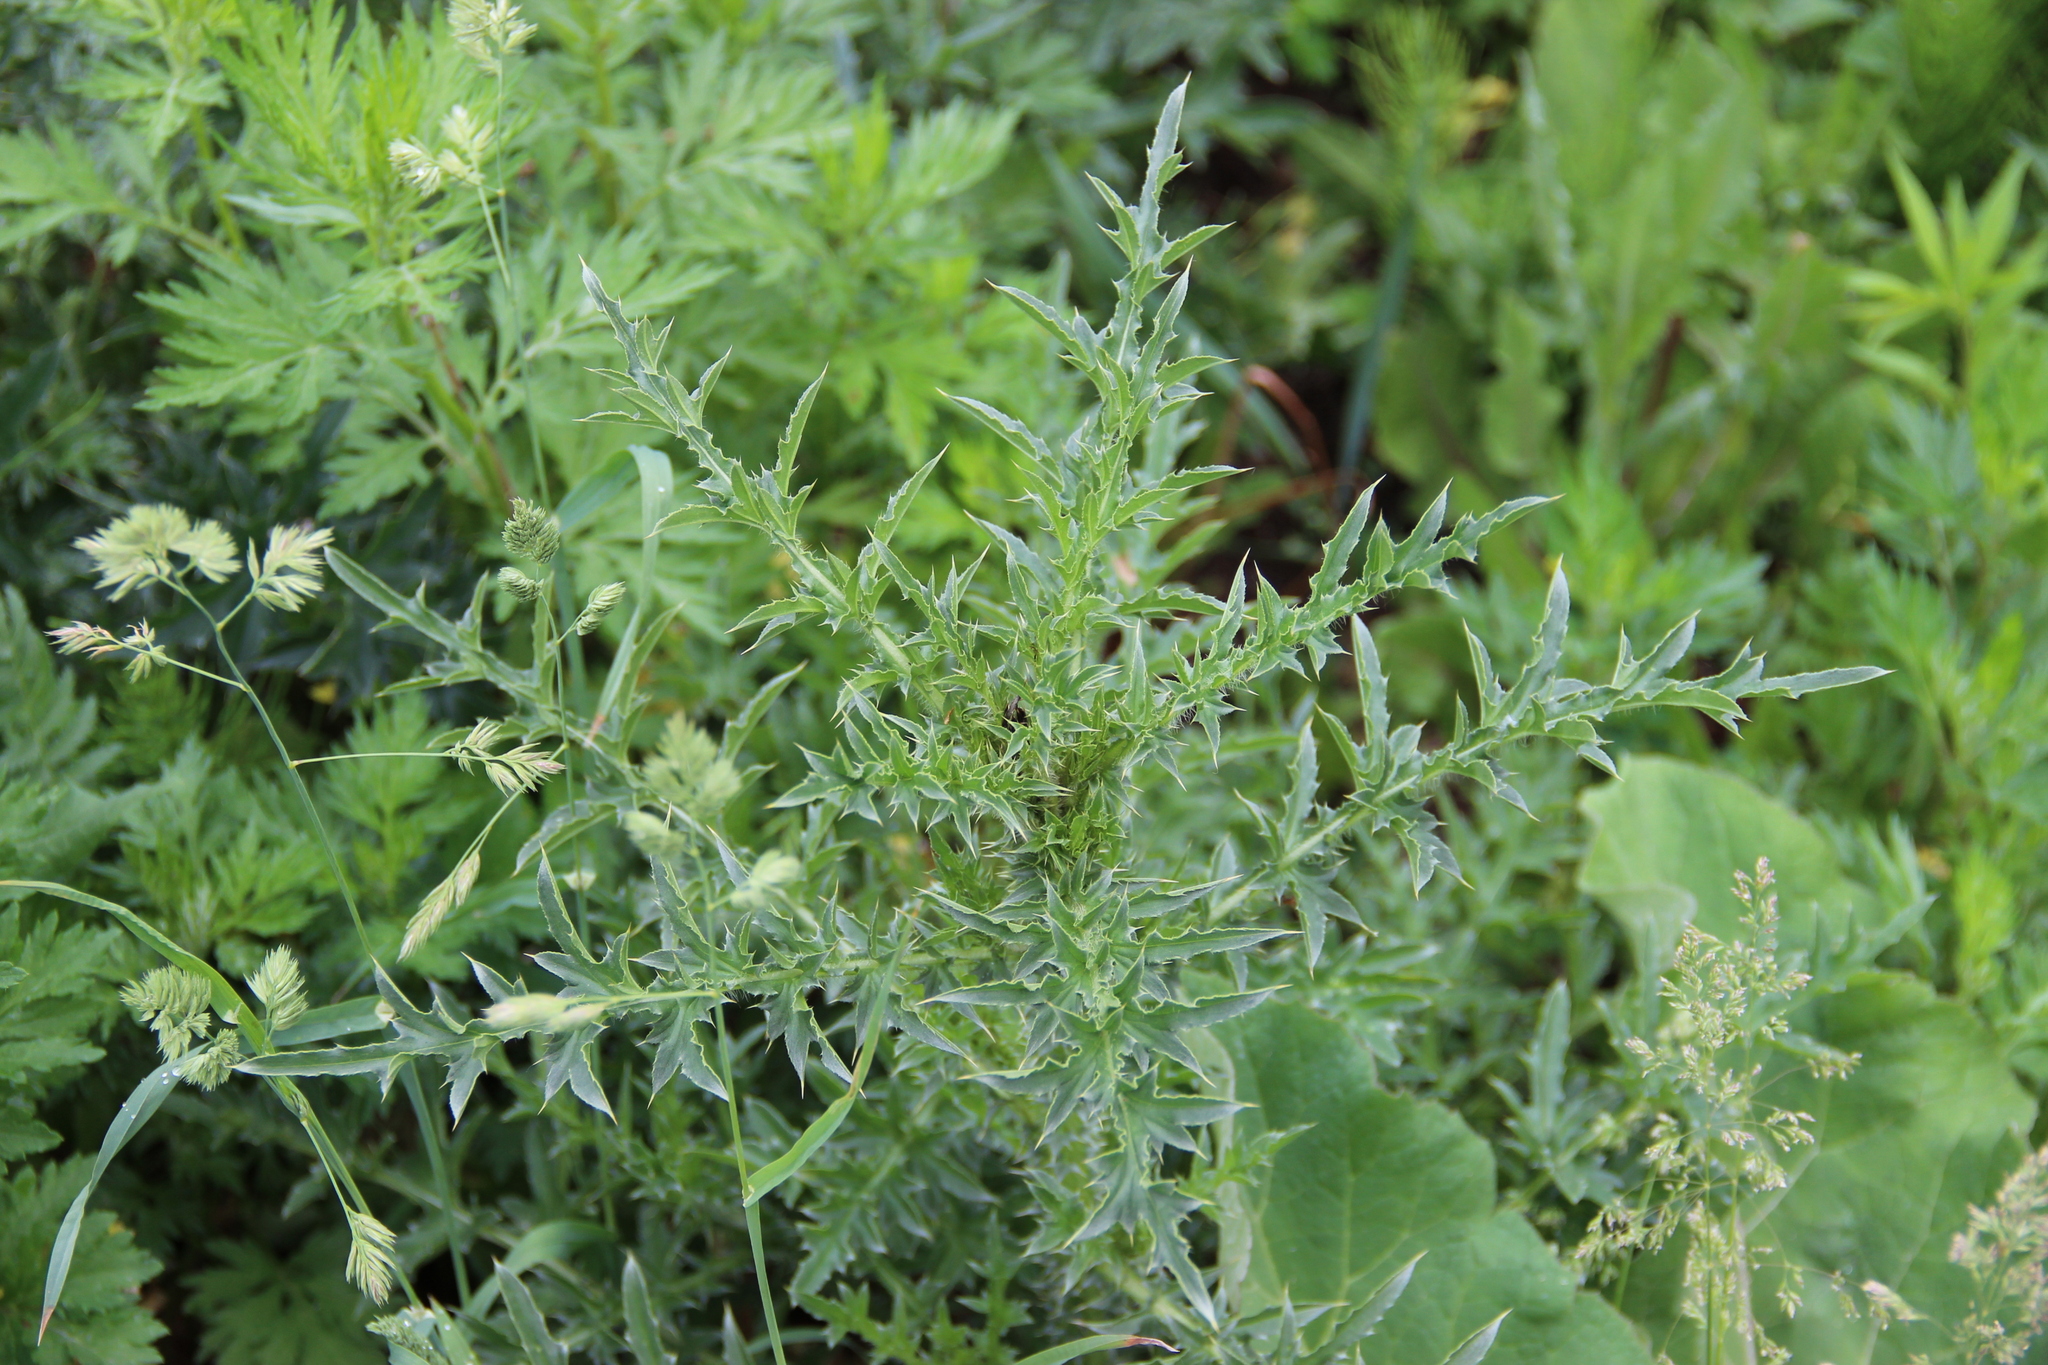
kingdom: Plantae
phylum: Tracheophyta
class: Magnoliopsida
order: Asterales
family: Asteraceae
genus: Carduus
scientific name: Carduus acanthoides
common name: Plumeless thistle
